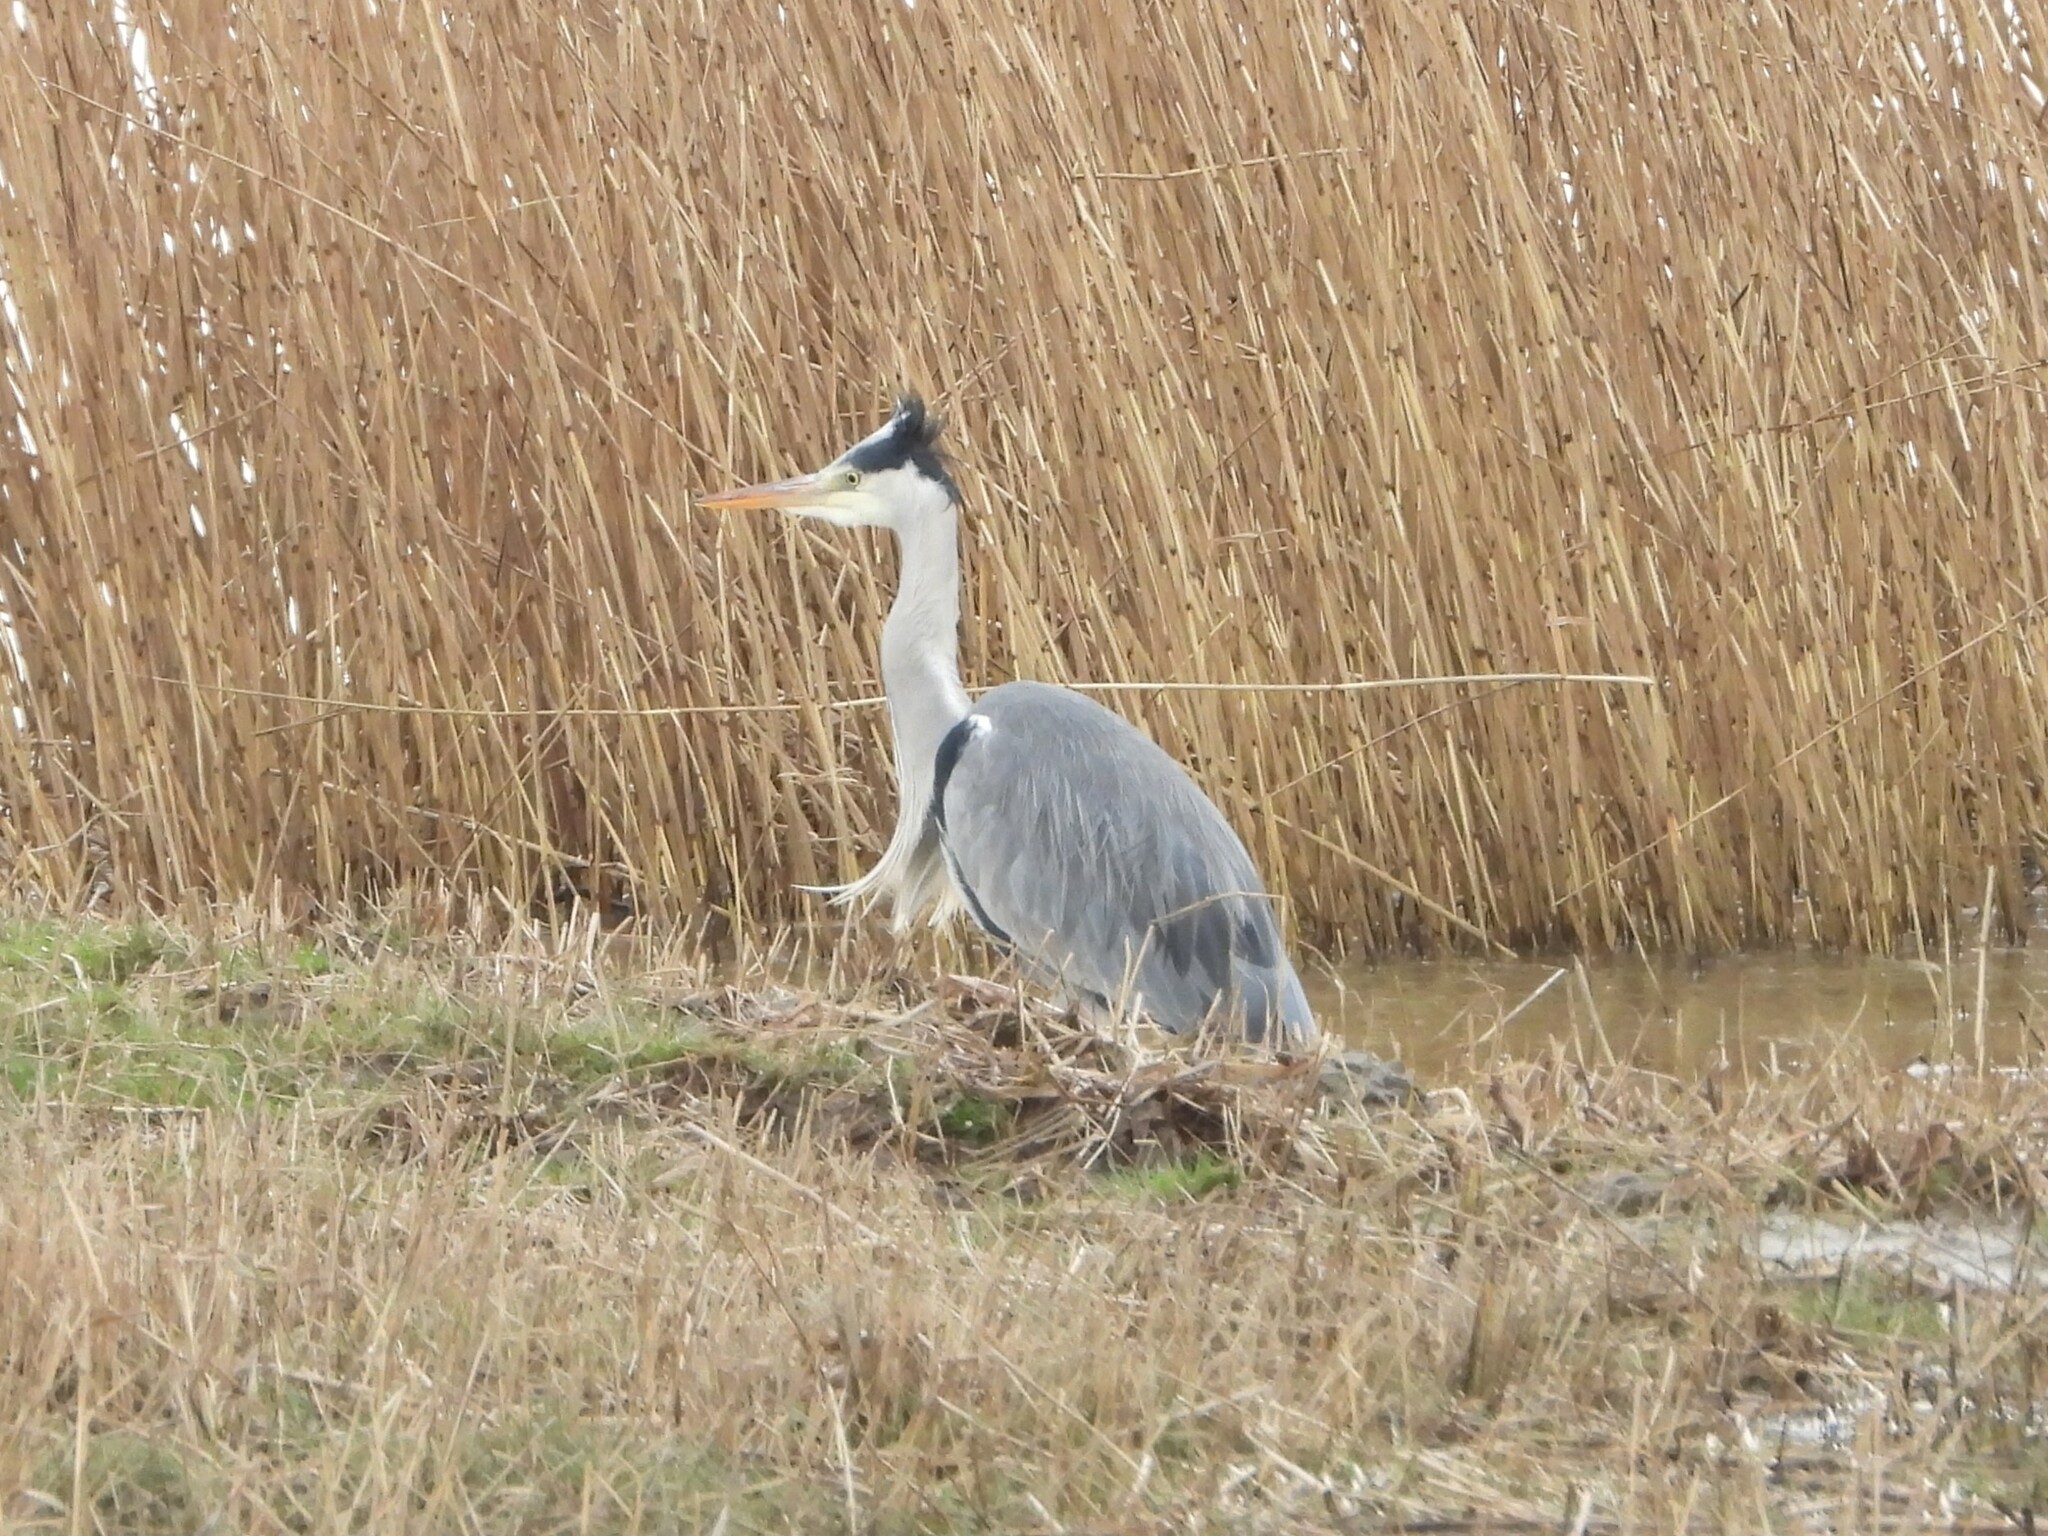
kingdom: Animalia
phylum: Chordata
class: Aves
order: Pelecaniformes
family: Ardeidae
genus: Ardea
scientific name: Ardea cinerea
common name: Grey heron
